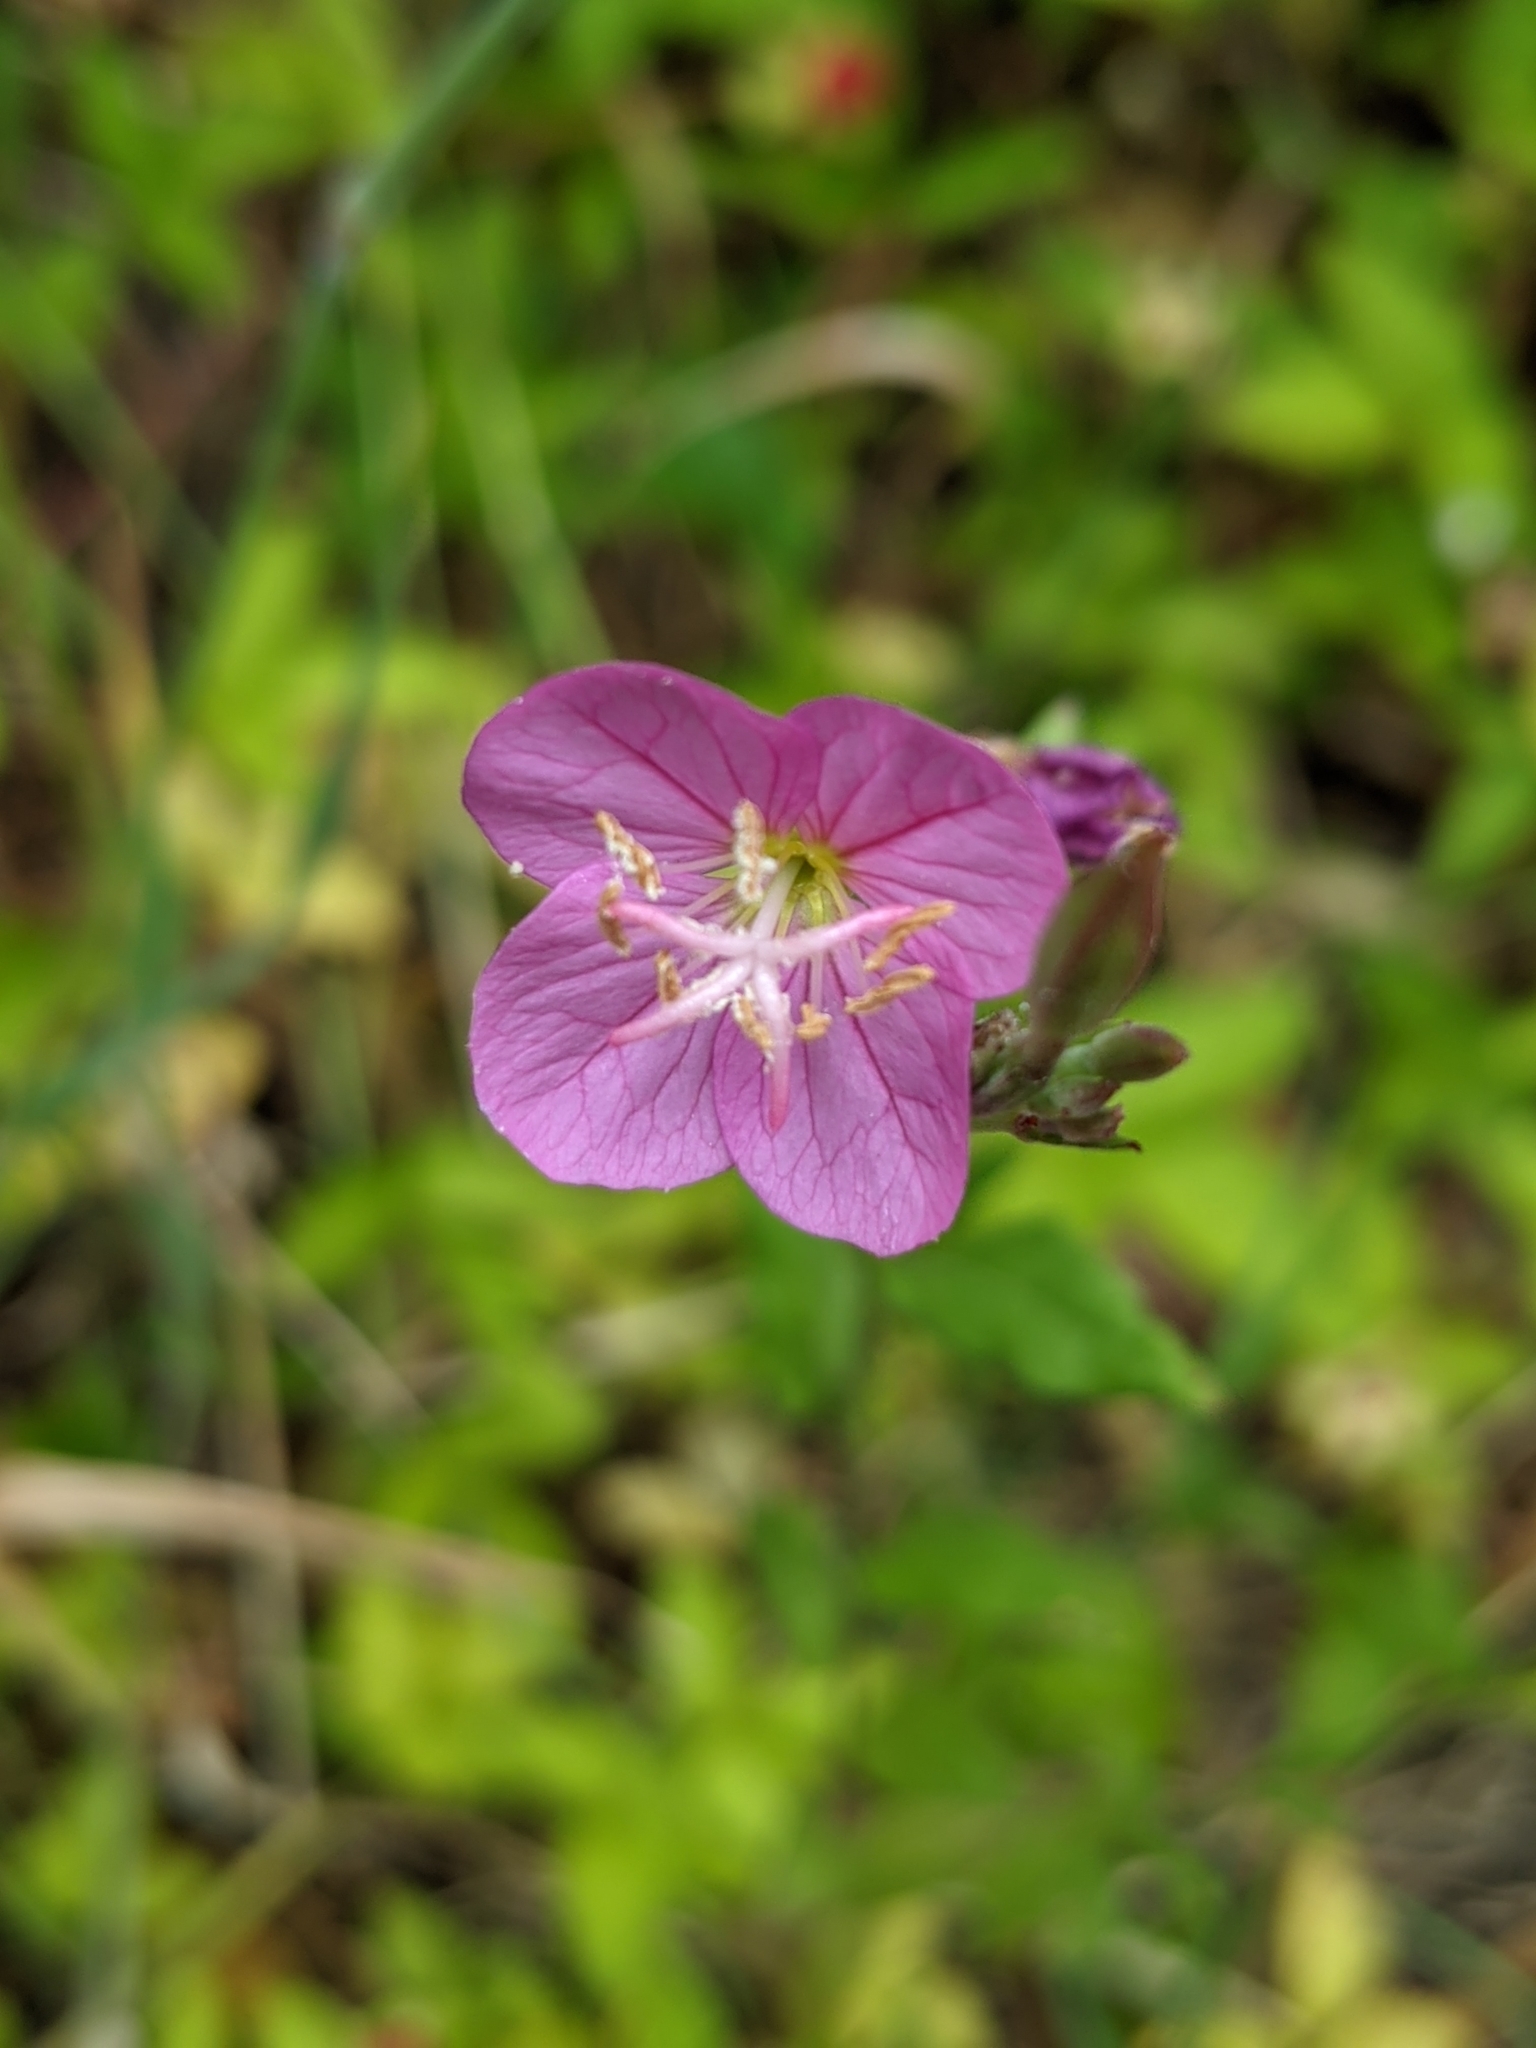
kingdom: Plantae
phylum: Tracheophyta
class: Magnoliopsida
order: Myrtales
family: Onagraceae
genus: Oenothera
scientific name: Oenothera rosea
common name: Rosy evening-primrose
